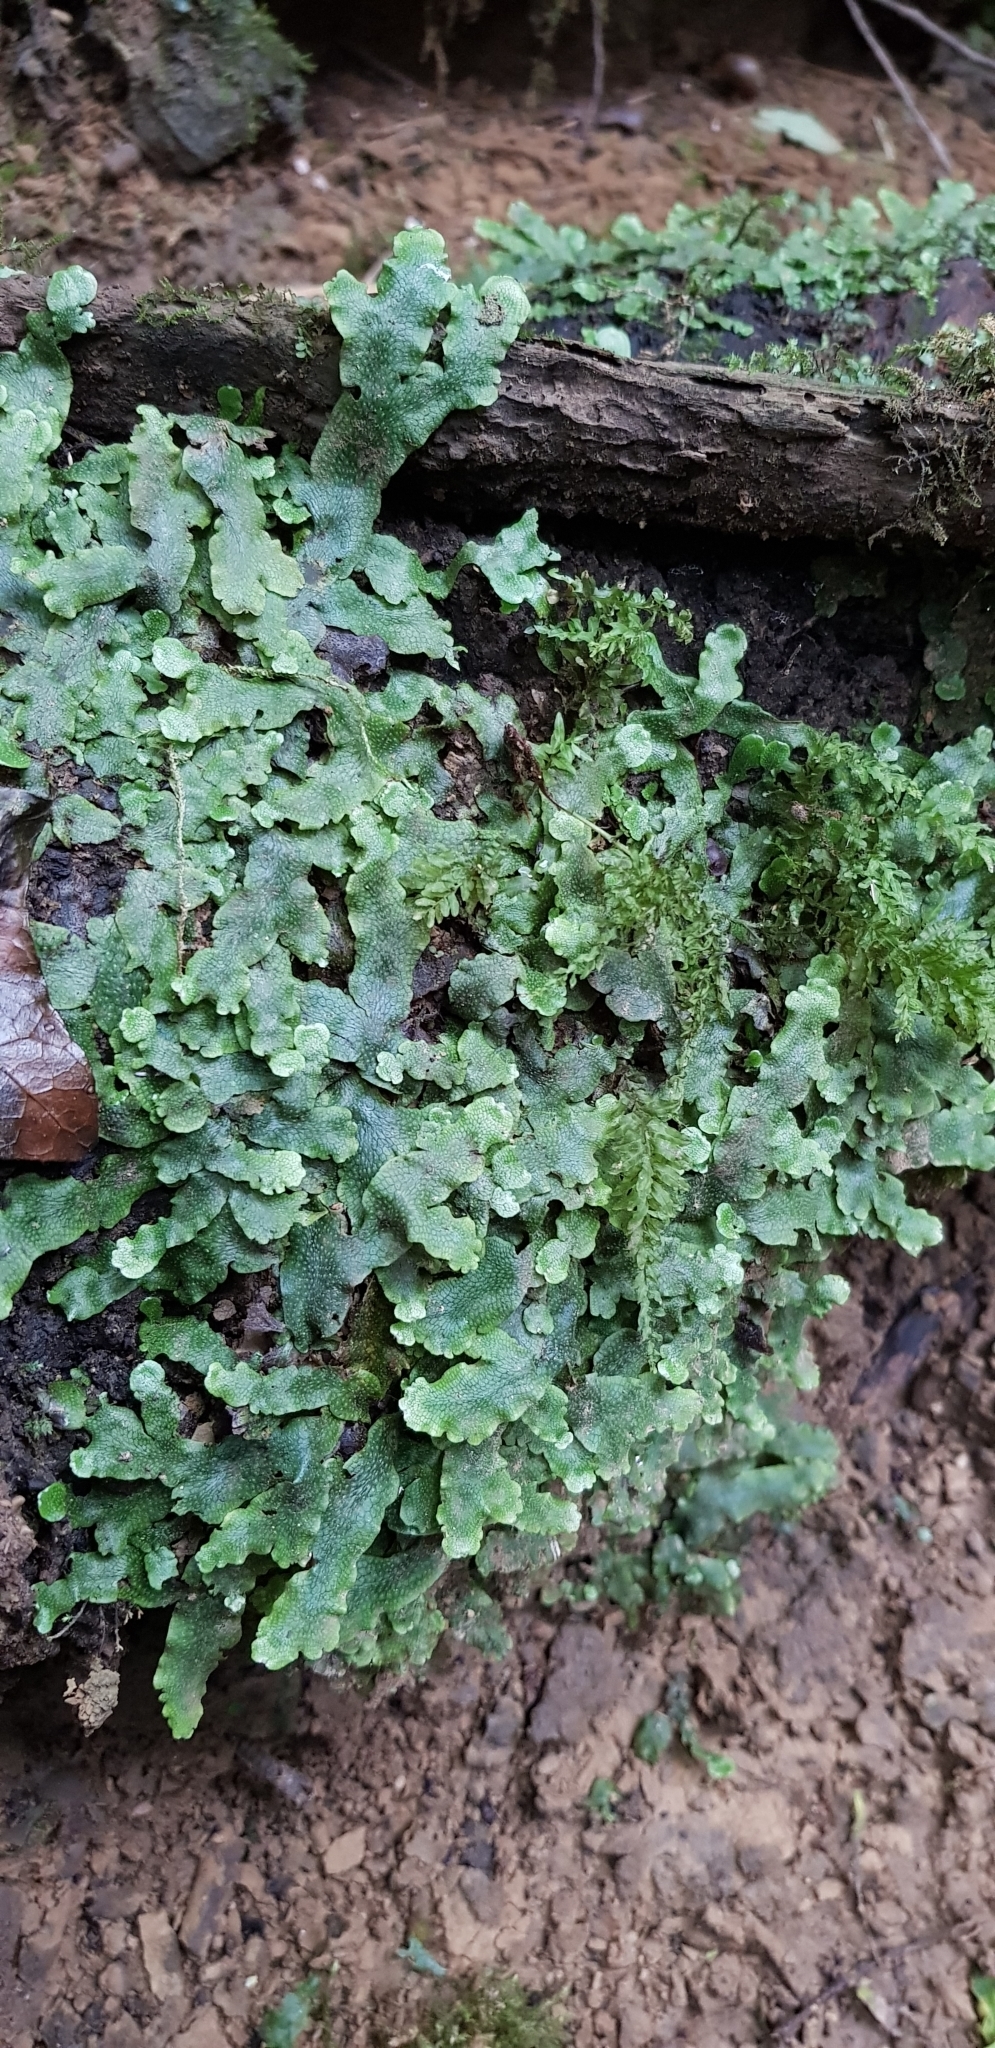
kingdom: Plantae
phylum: Marchantiophyta
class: Marchantiopsida
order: Marchantiales
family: Conocephalaceae
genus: Conocephalum
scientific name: Conocephalum salebrosum
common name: Cat-tongue liverwort
